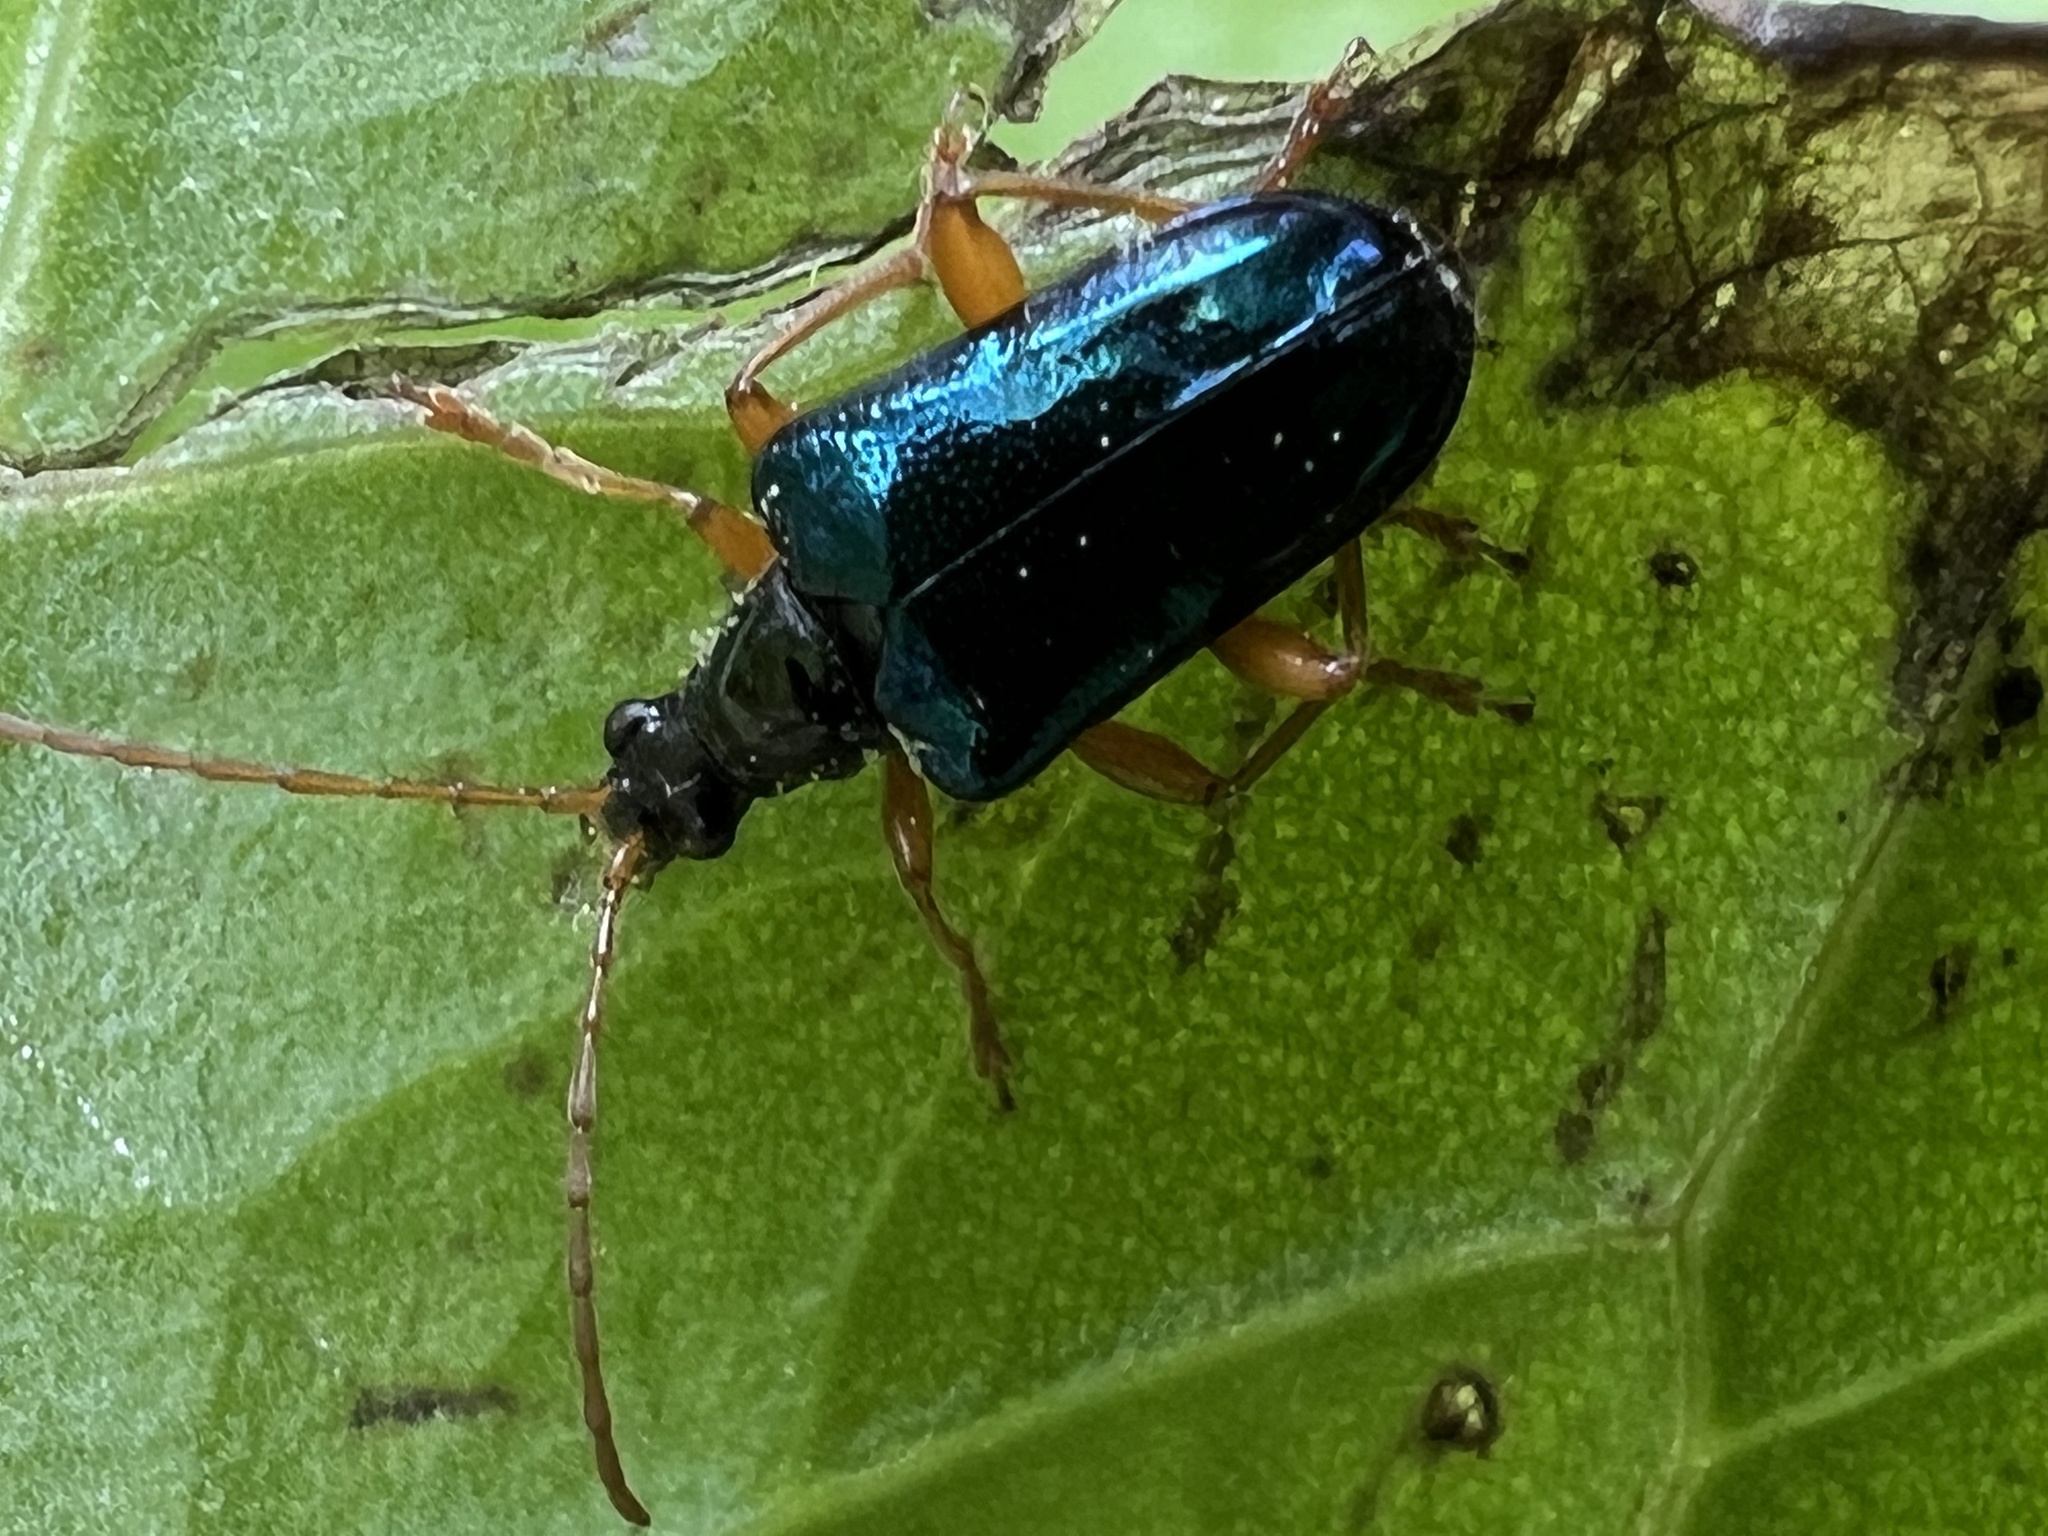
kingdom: Animalia
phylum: Arthropoda
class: Insecta
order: Coleoptera
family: Cerambycidae
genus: Gaurotes
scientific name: Gaurotes cyanipennis
